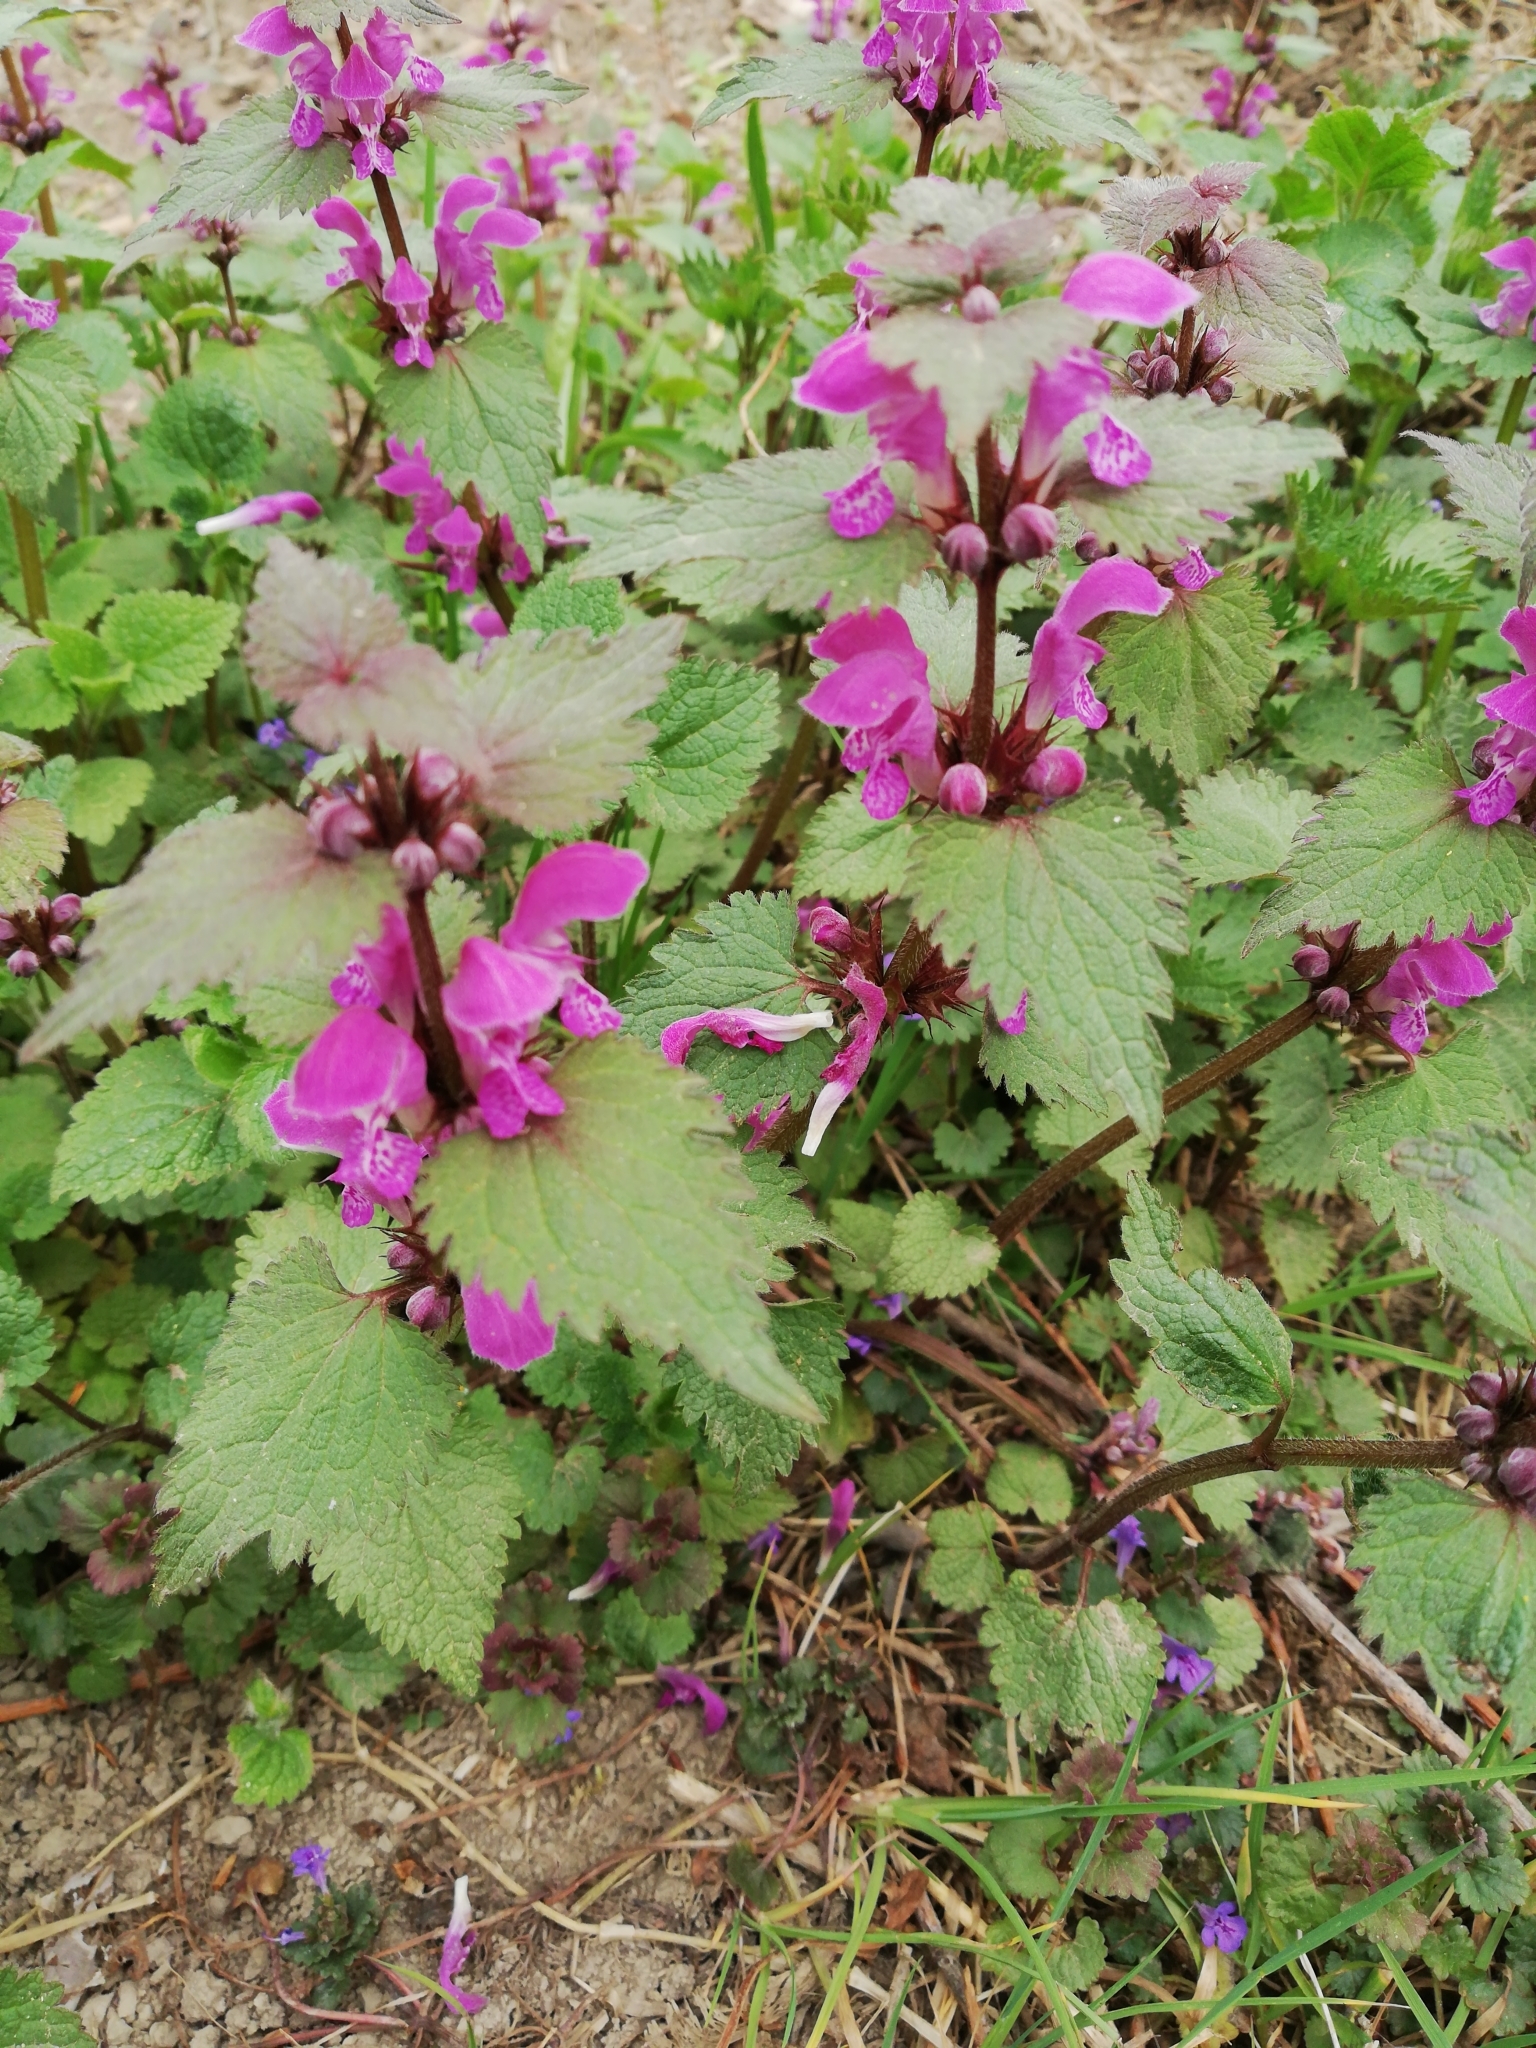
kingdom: Plantae
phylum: Tracheophyta
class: Magnoliopsida
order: Lamiales
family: Lamiaceae
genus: Lamium
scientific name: Lamium maculatum
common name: Spotted dead-nettle
